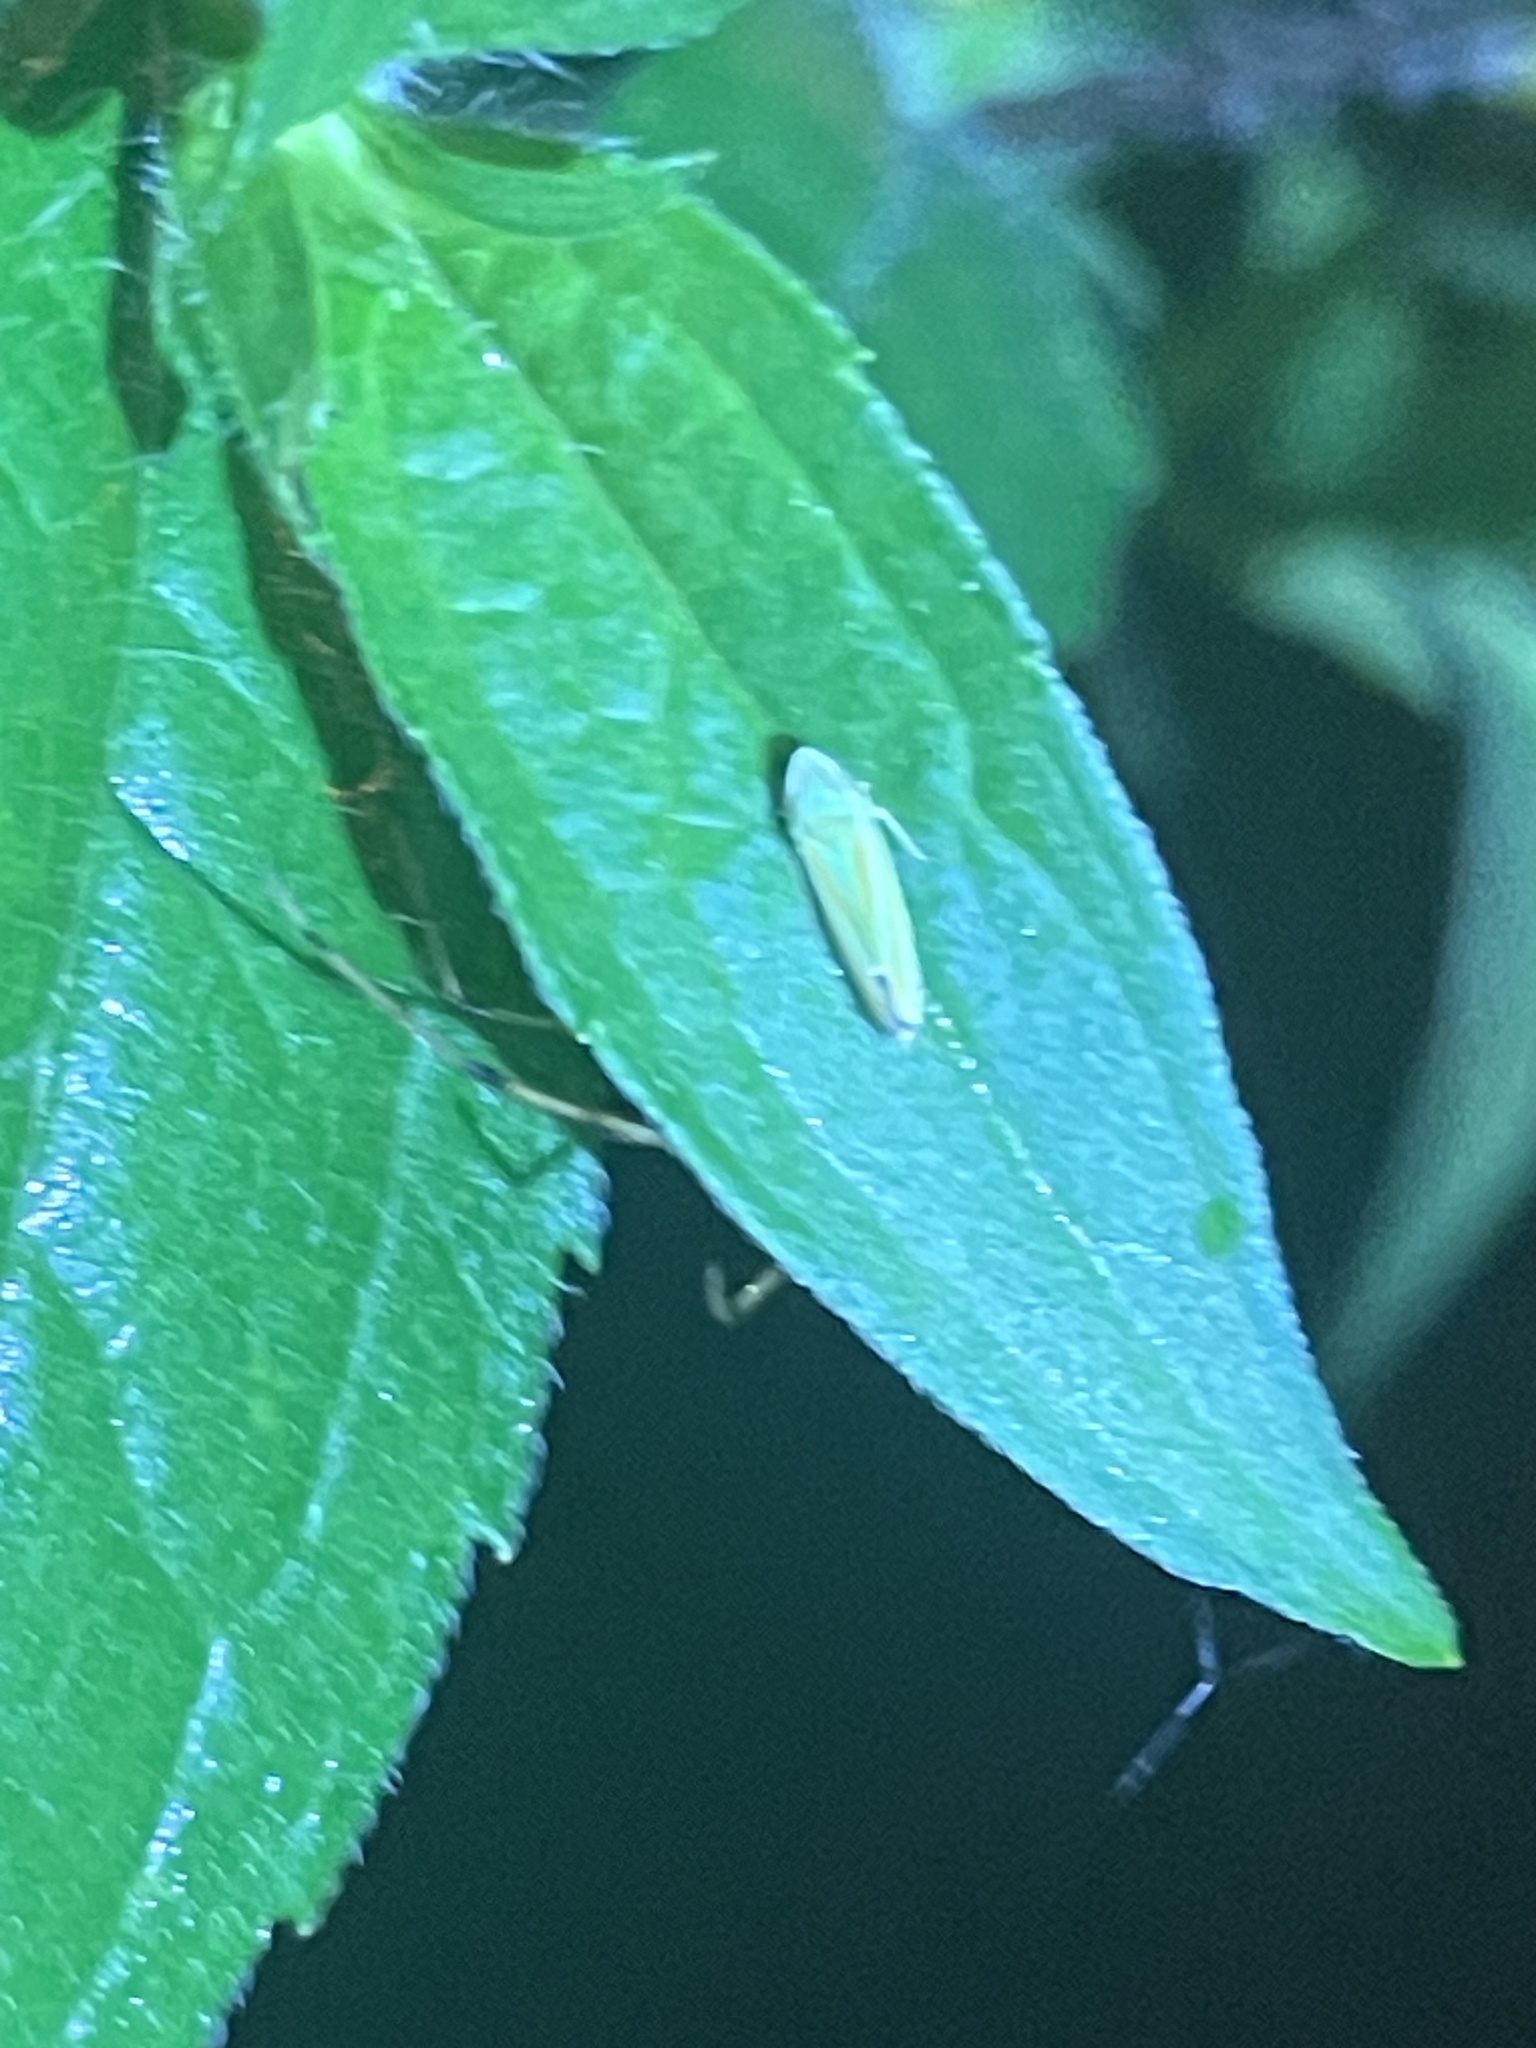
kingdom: Animalia
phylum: Arthropoda
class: Insecta
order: Hemiptera
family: Cicadellidae
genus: Graphocephala
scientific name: Graphocephala versuta
